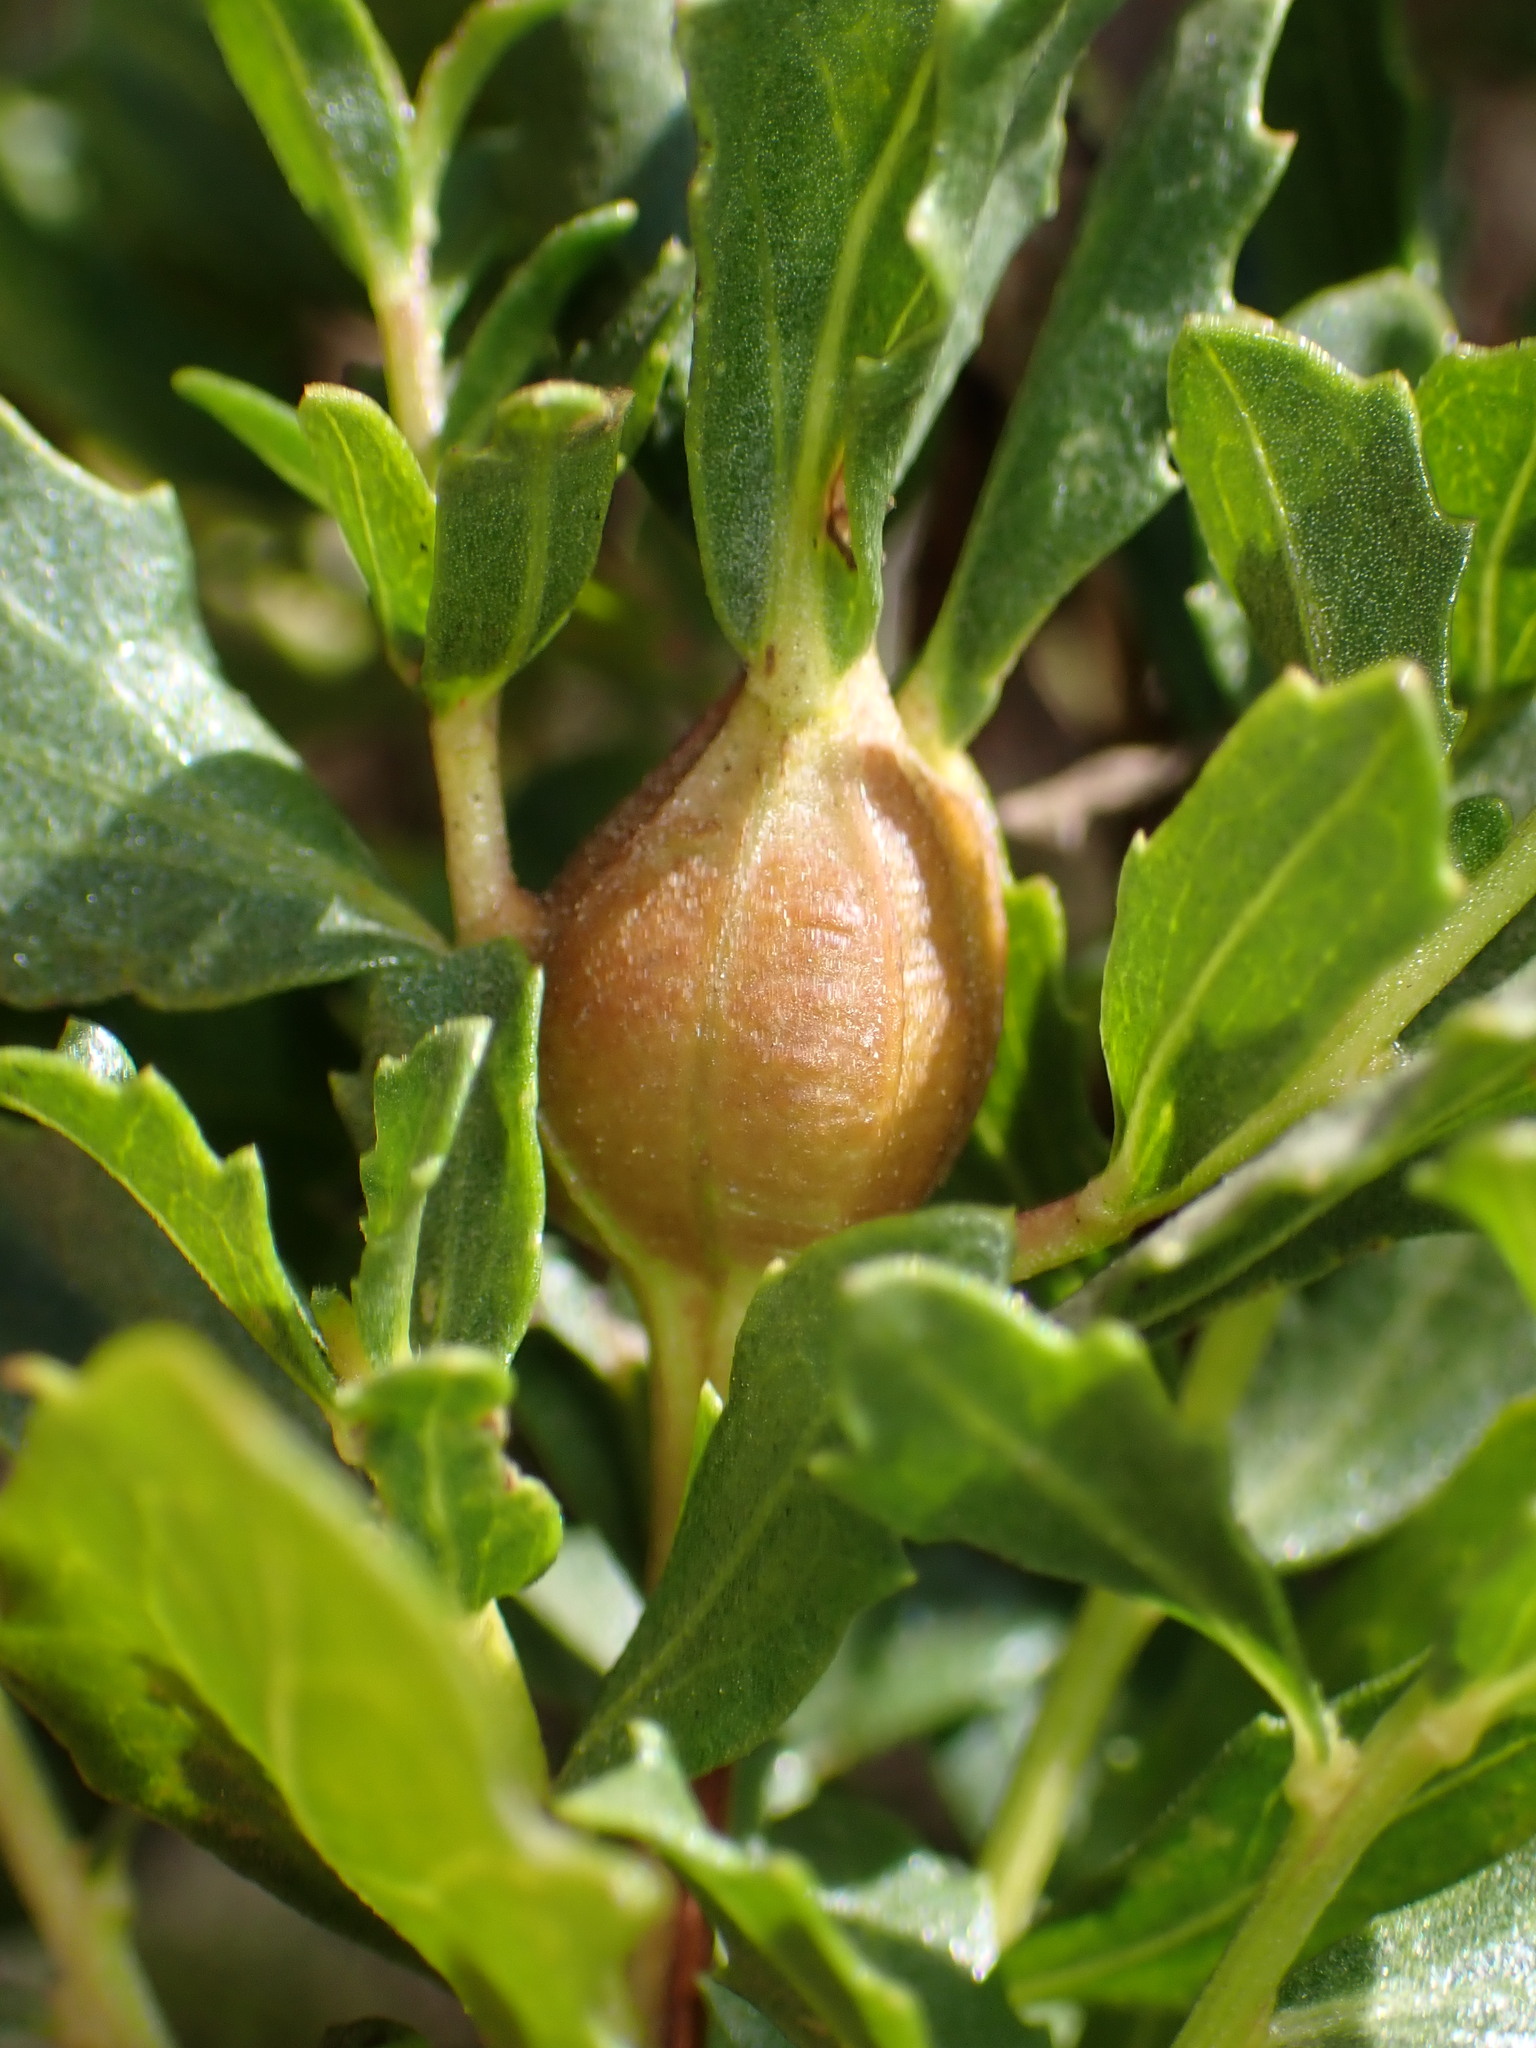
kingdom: Animalia
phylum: Arthropoda
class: Insecta
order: Lepidoptera
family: Gelechiidae
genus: Gnorimoschema
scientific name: Gnorimoschema baccharisella
